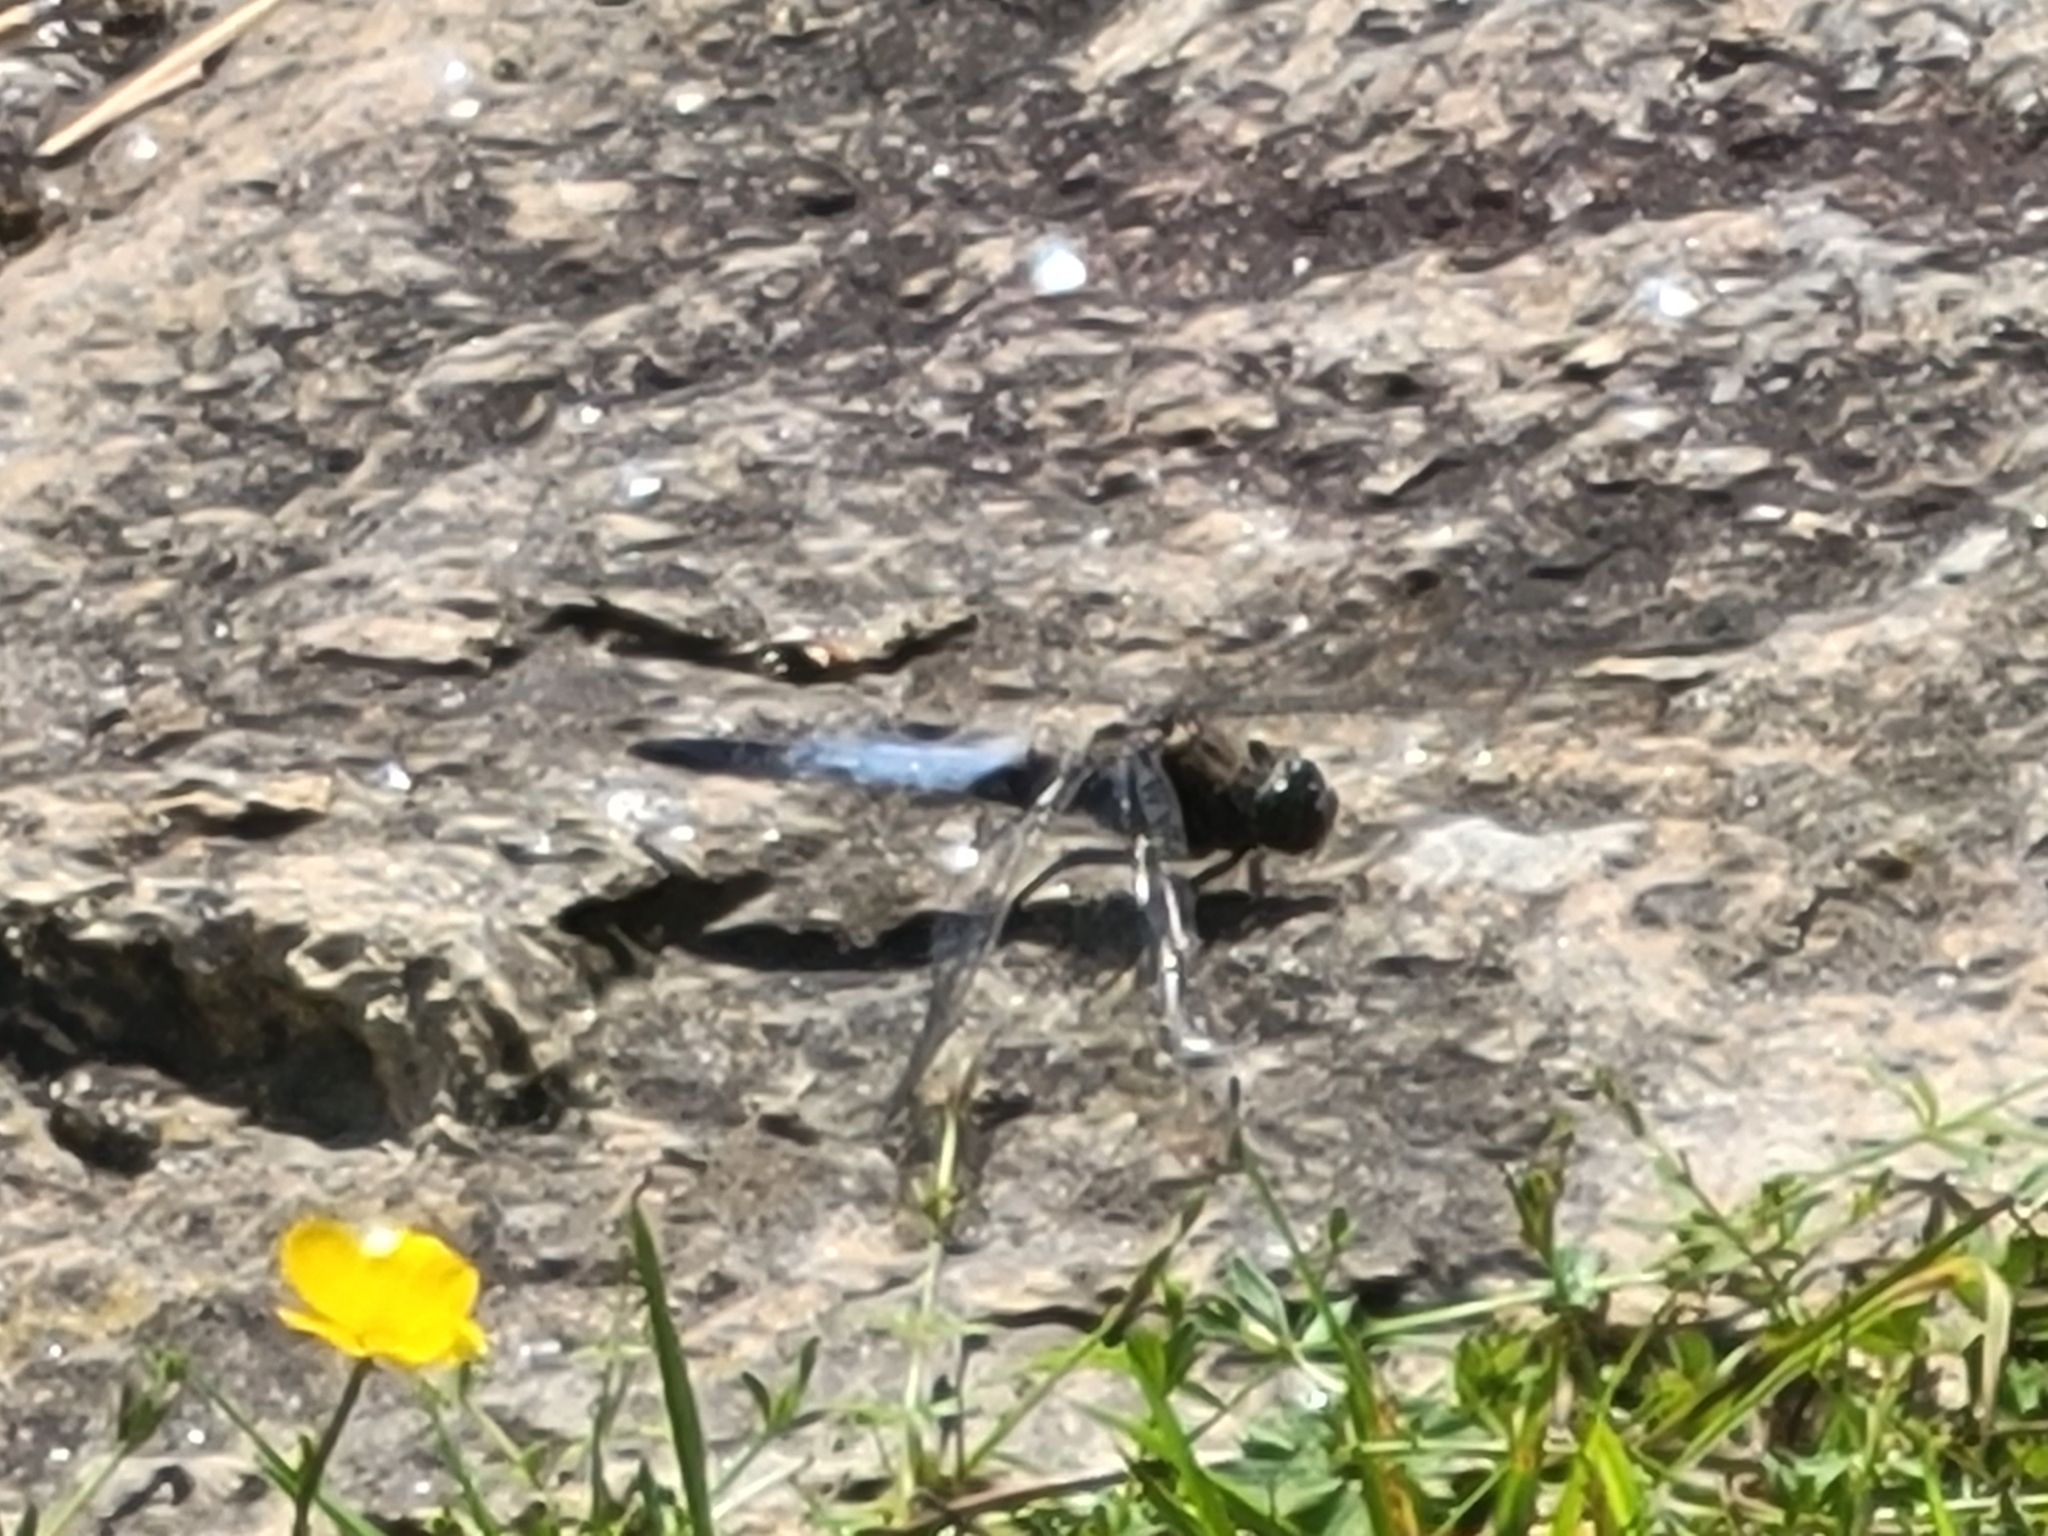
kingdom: Animalia
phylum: Arthropoda
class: Insecta
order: Odonata
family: Libellulidae
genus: Orthetrum
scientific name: Orthetrum cancellatum
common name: Black-tailed skimmer
